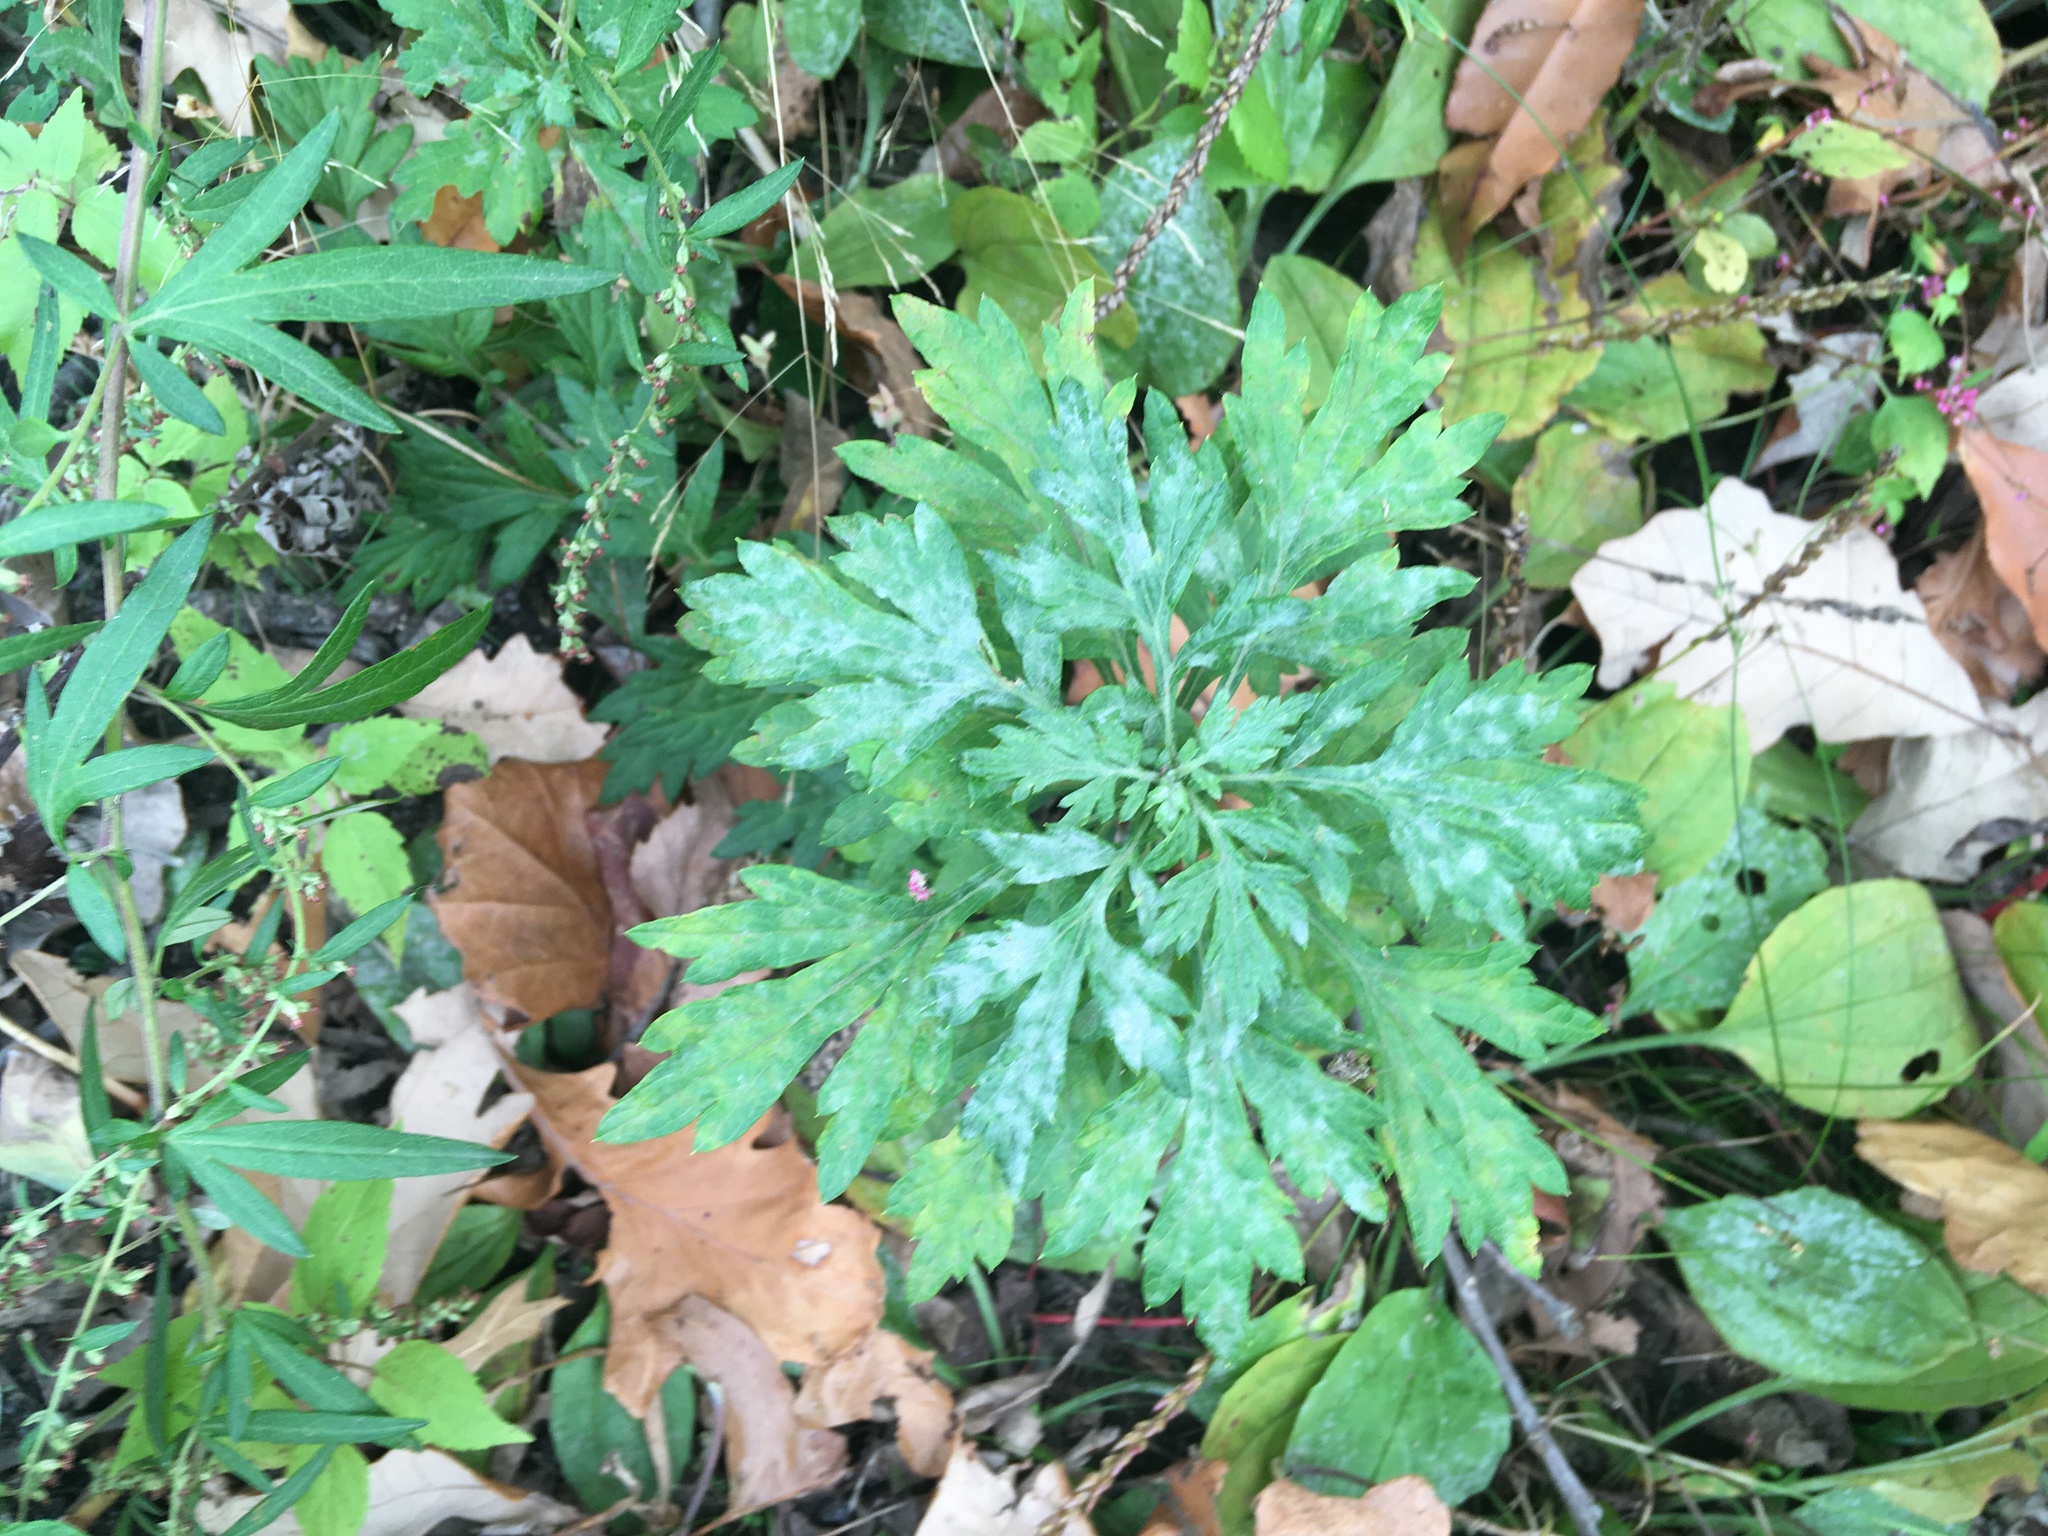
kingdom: Plantae
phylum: Tracheophyta
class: Magnoliopsida
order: Asterales
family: Asteraceae
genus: Artemisia
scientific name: Artemisia vulgaris
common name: Mugwort
